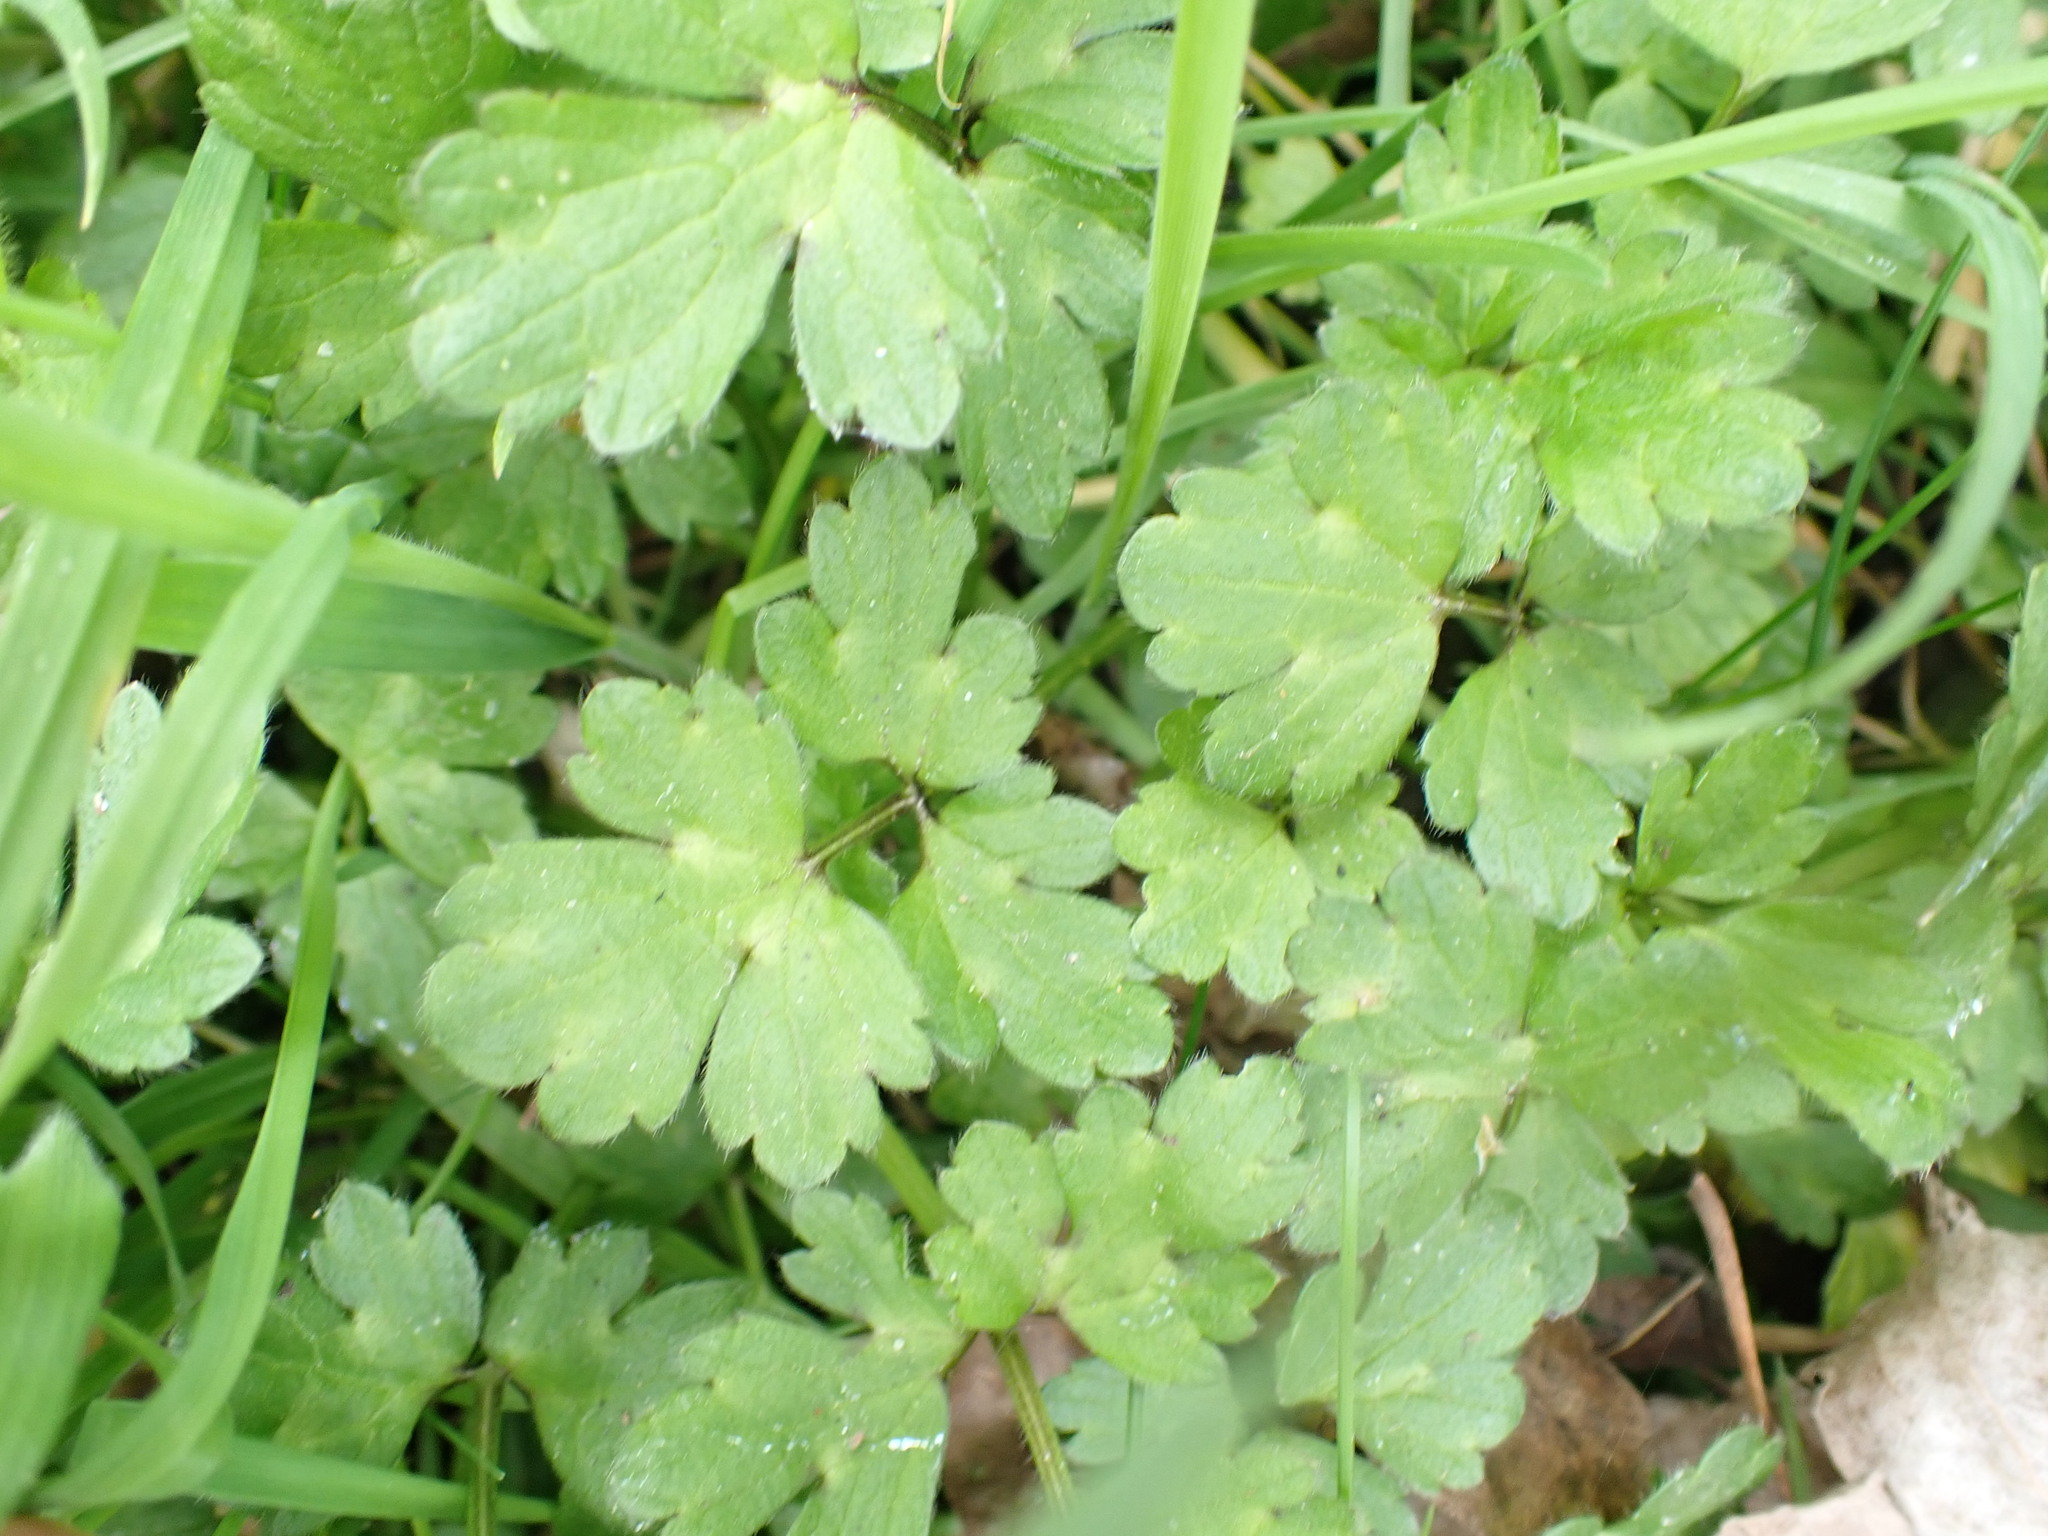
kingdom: Plantae
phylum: Tracheophyta
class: Magnoliopsida
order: Ranunculales
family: Ranunculaceae
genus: Ranunculus
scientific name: Ranunculus repens
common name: Creeping buttercup
